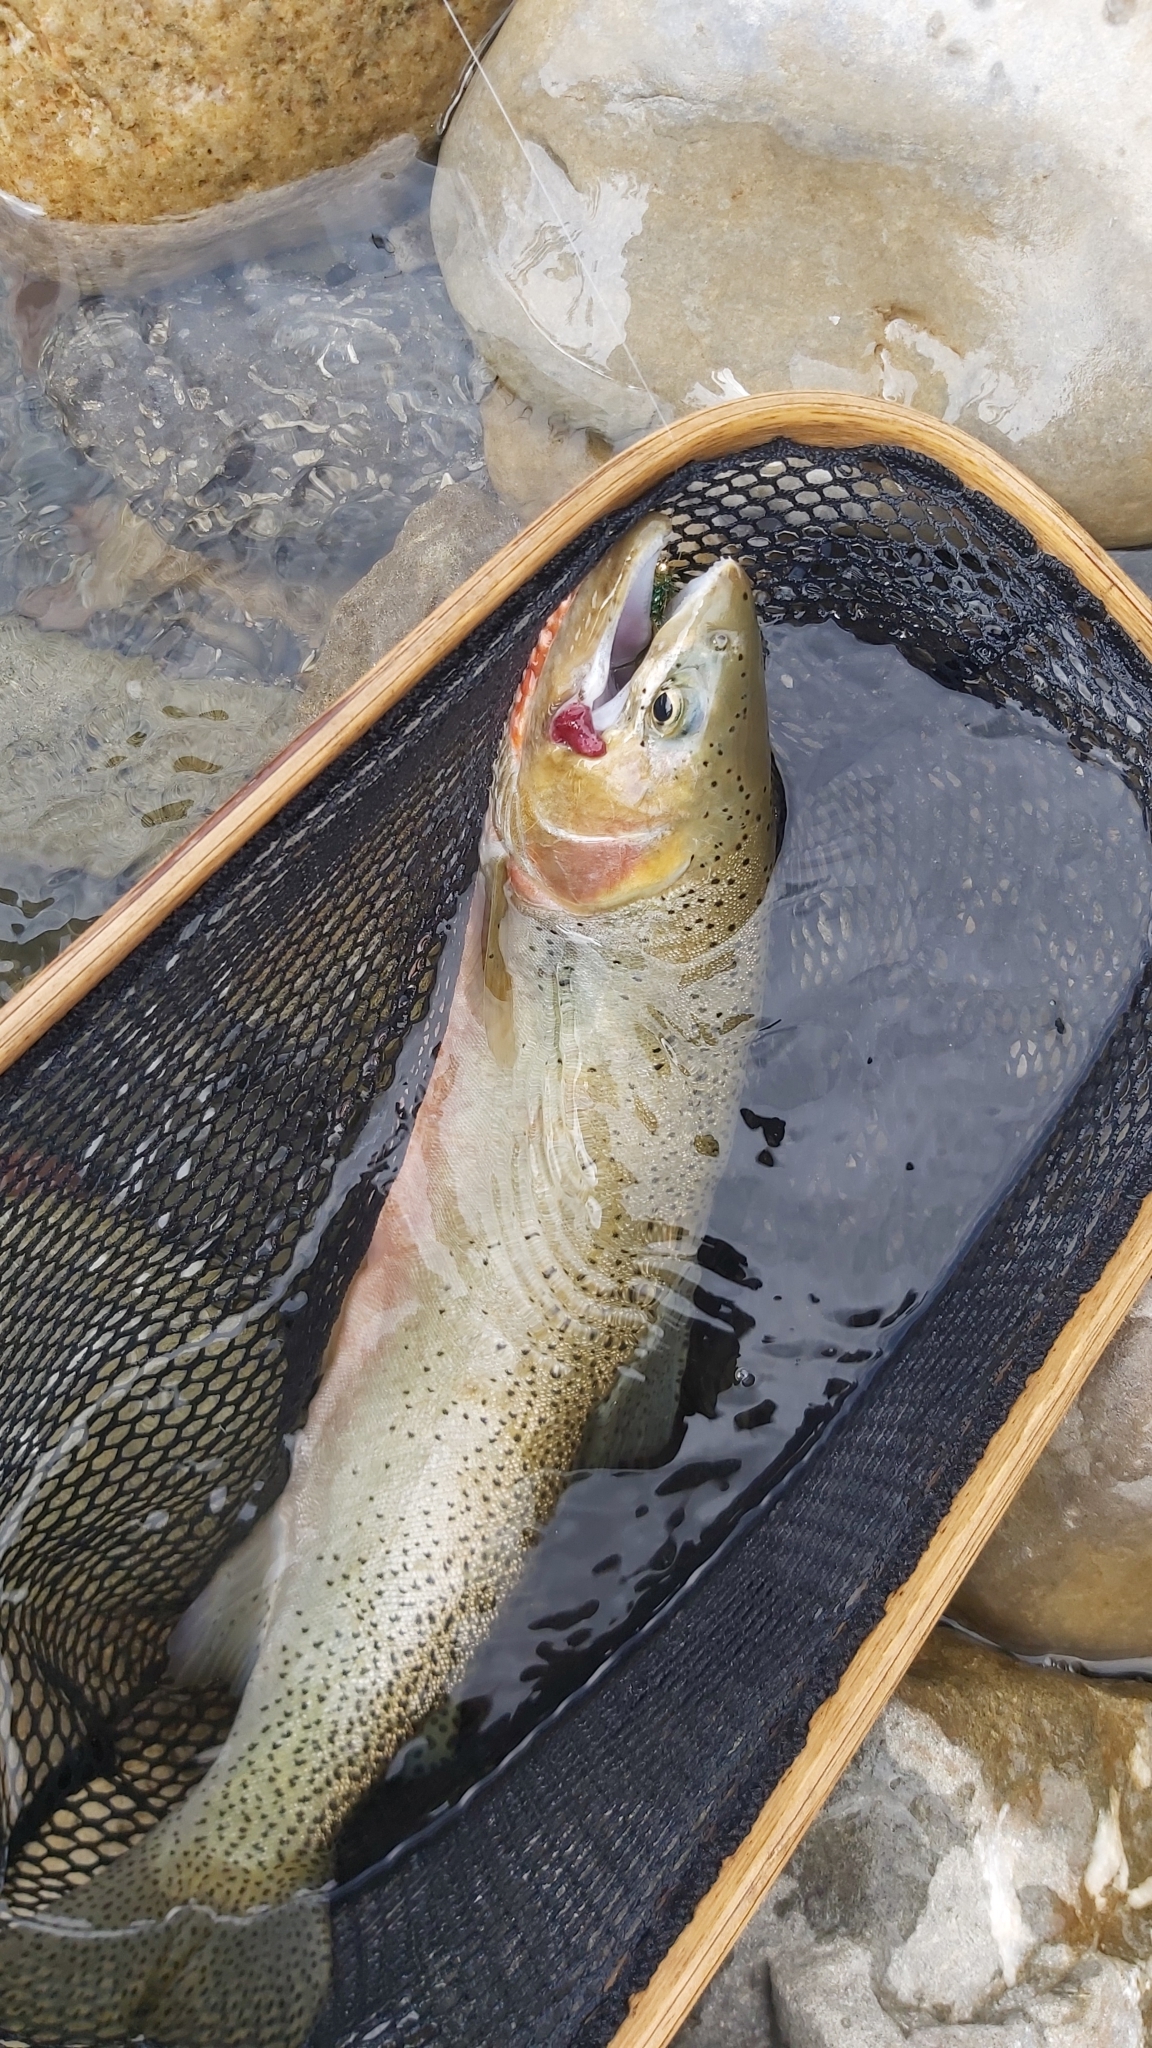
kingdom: Animalia
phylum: Chordata
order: Salmoniformes
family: Salmonidae
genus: Oncorhynchus
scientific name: Oncorhynchus
